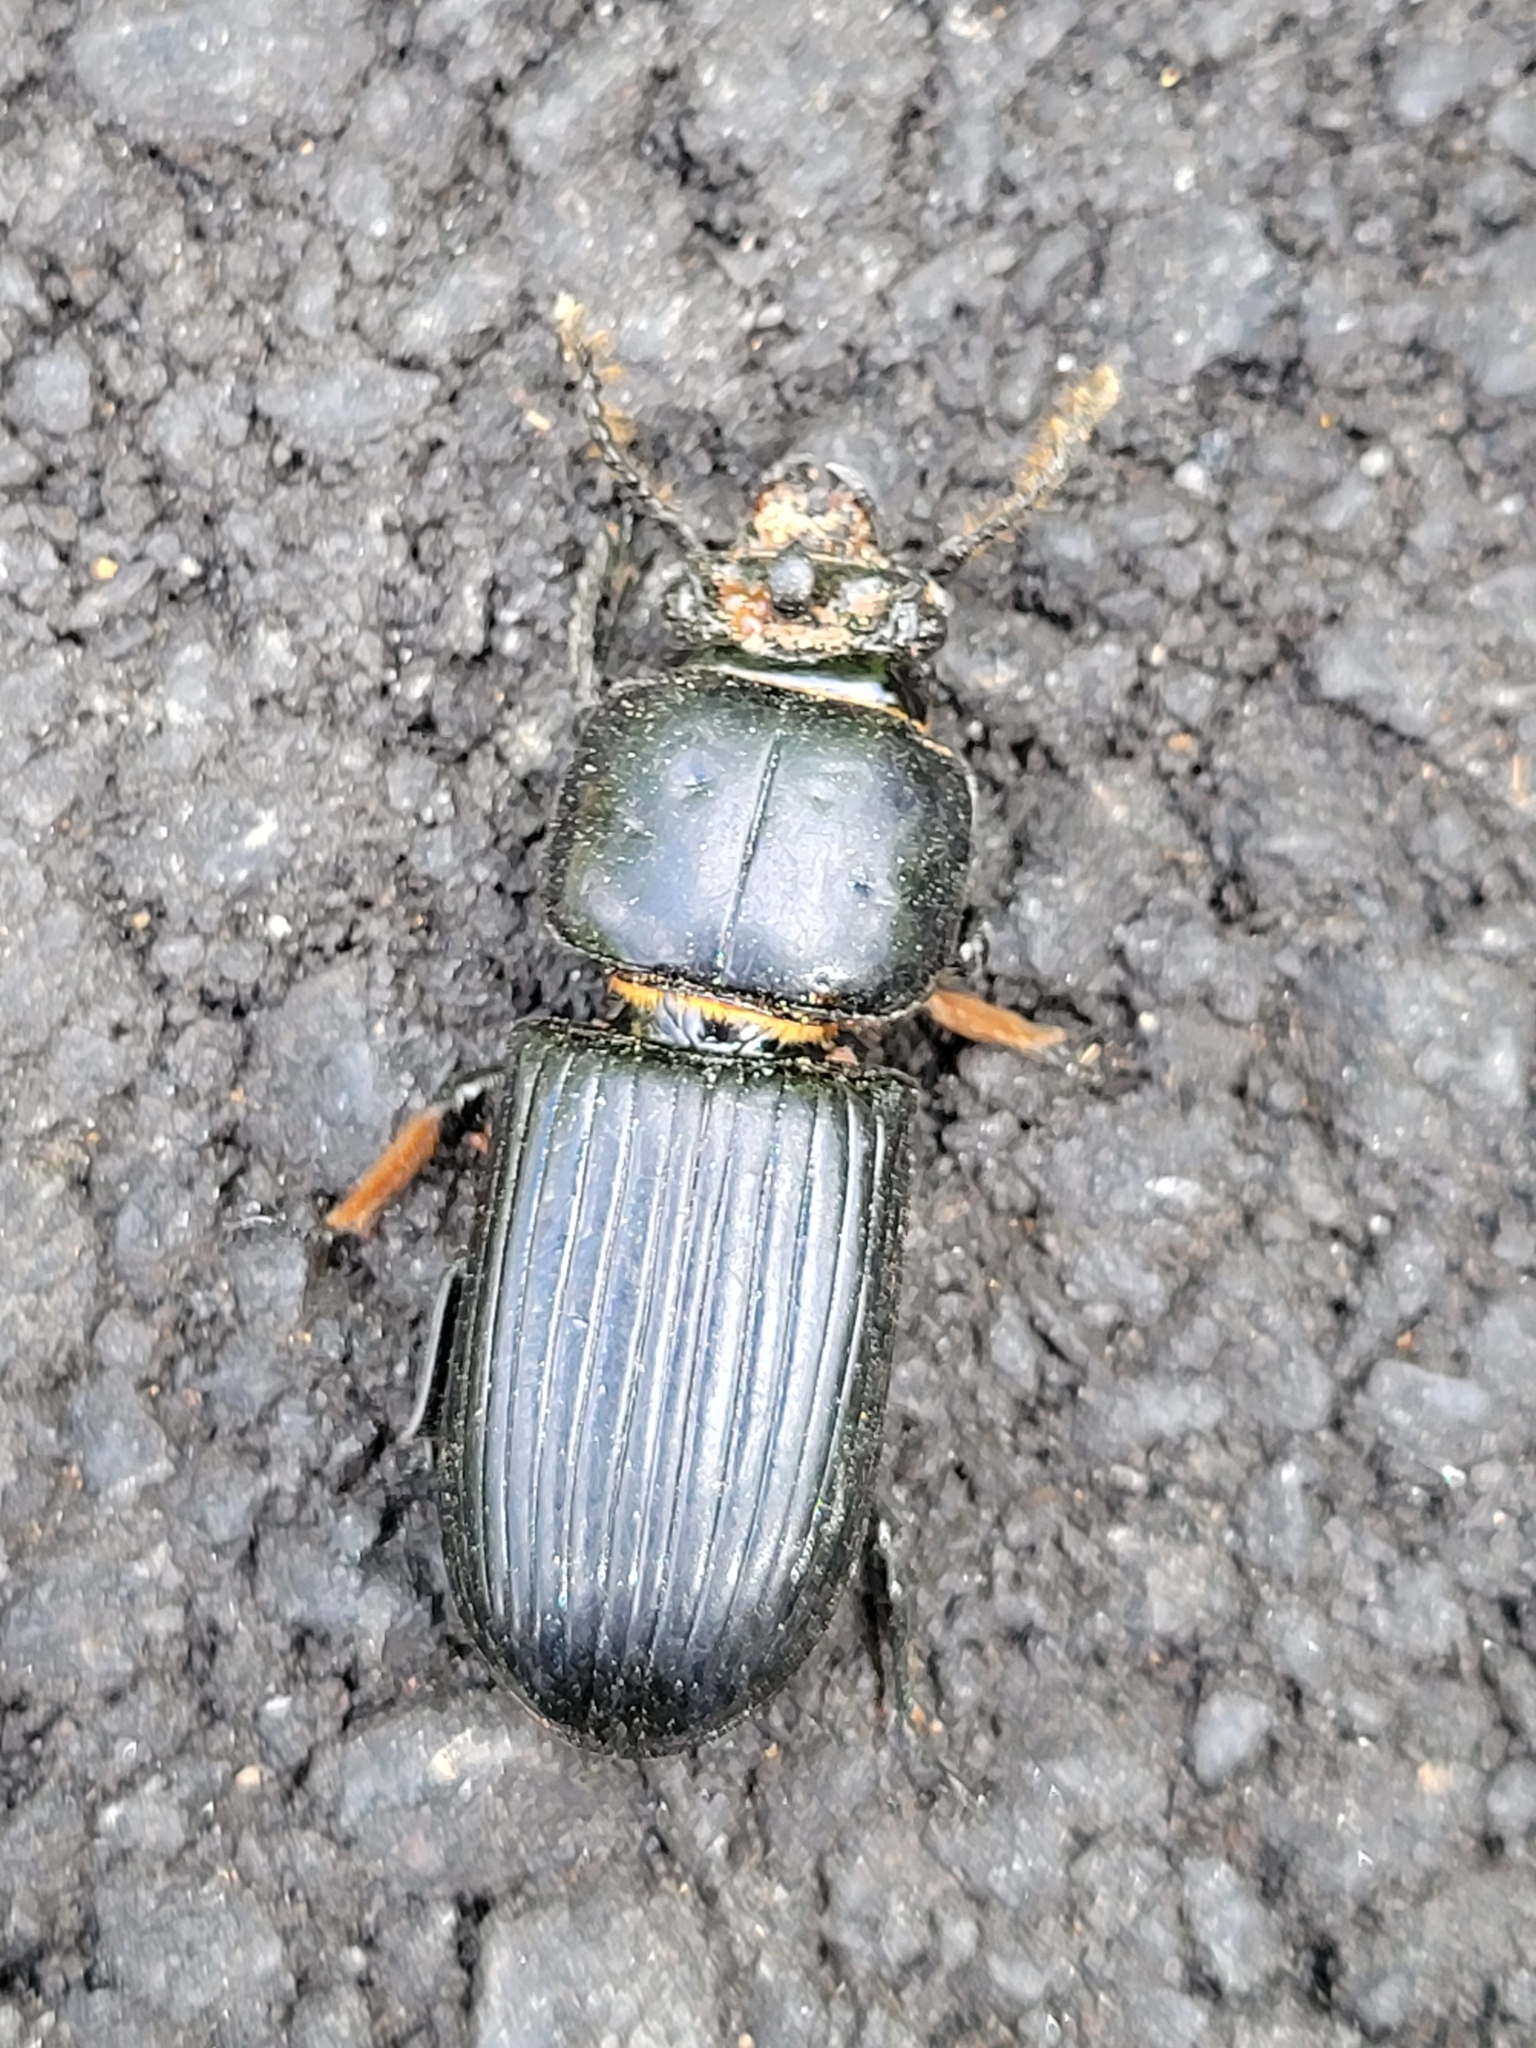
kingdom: Animalia
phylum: Arthropoda
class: Insecta
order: Coleoptera
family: Passalidae
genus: Odontotaenius
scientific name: Odontotaenius disjunctus
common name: Patent leather beetle
